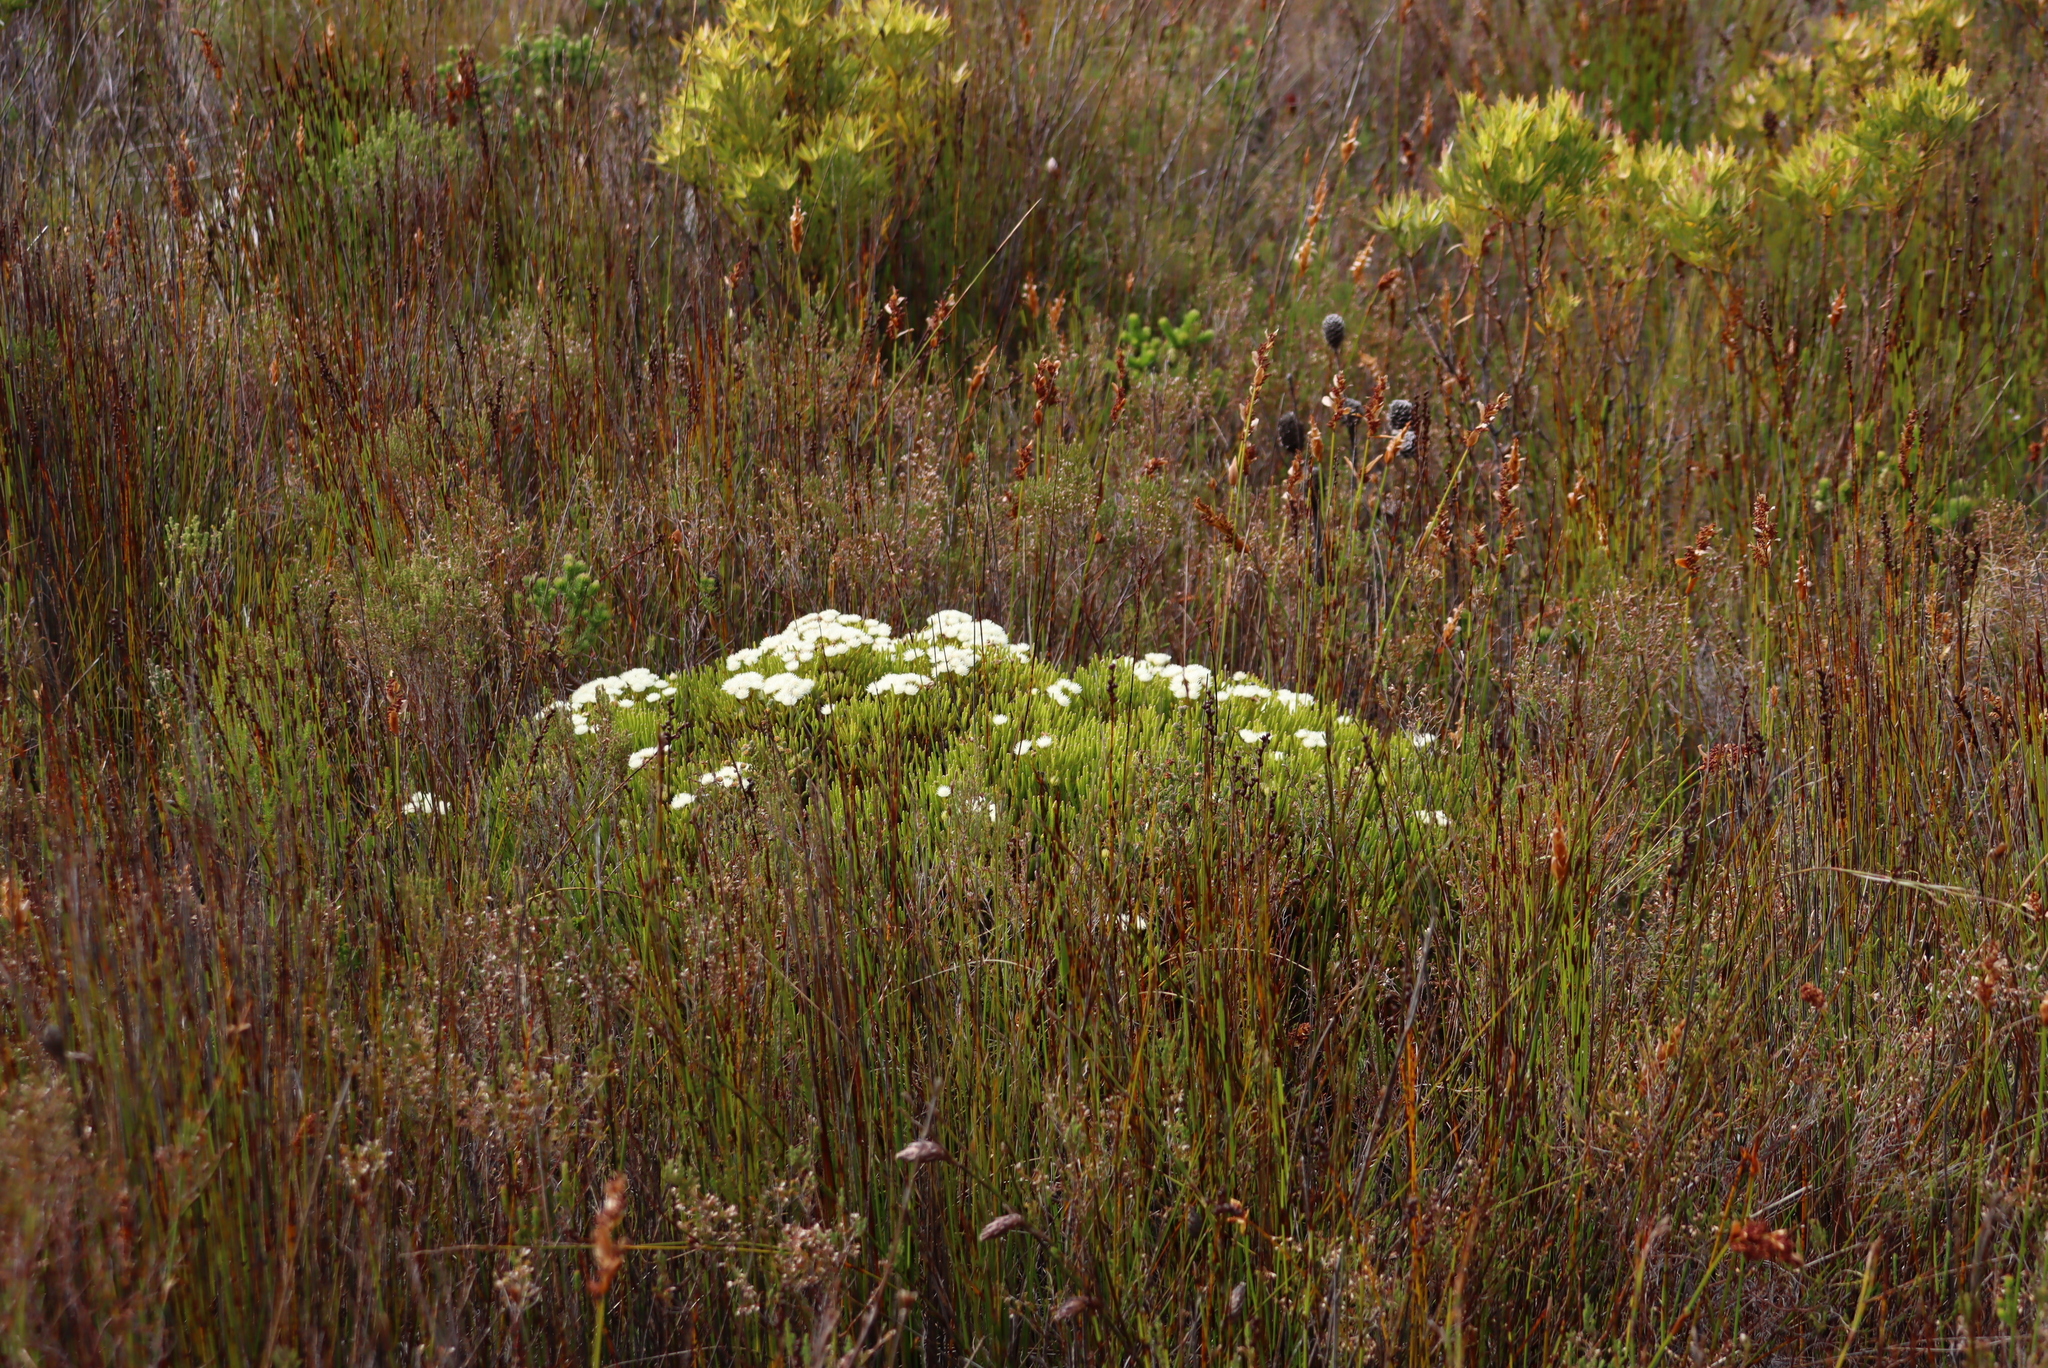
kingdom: Plantae
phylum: Tracheophyta
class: Magnoliopsida
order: Bruniales
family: Bruniaceae
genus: Brunia
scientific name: Brunia paleacea
